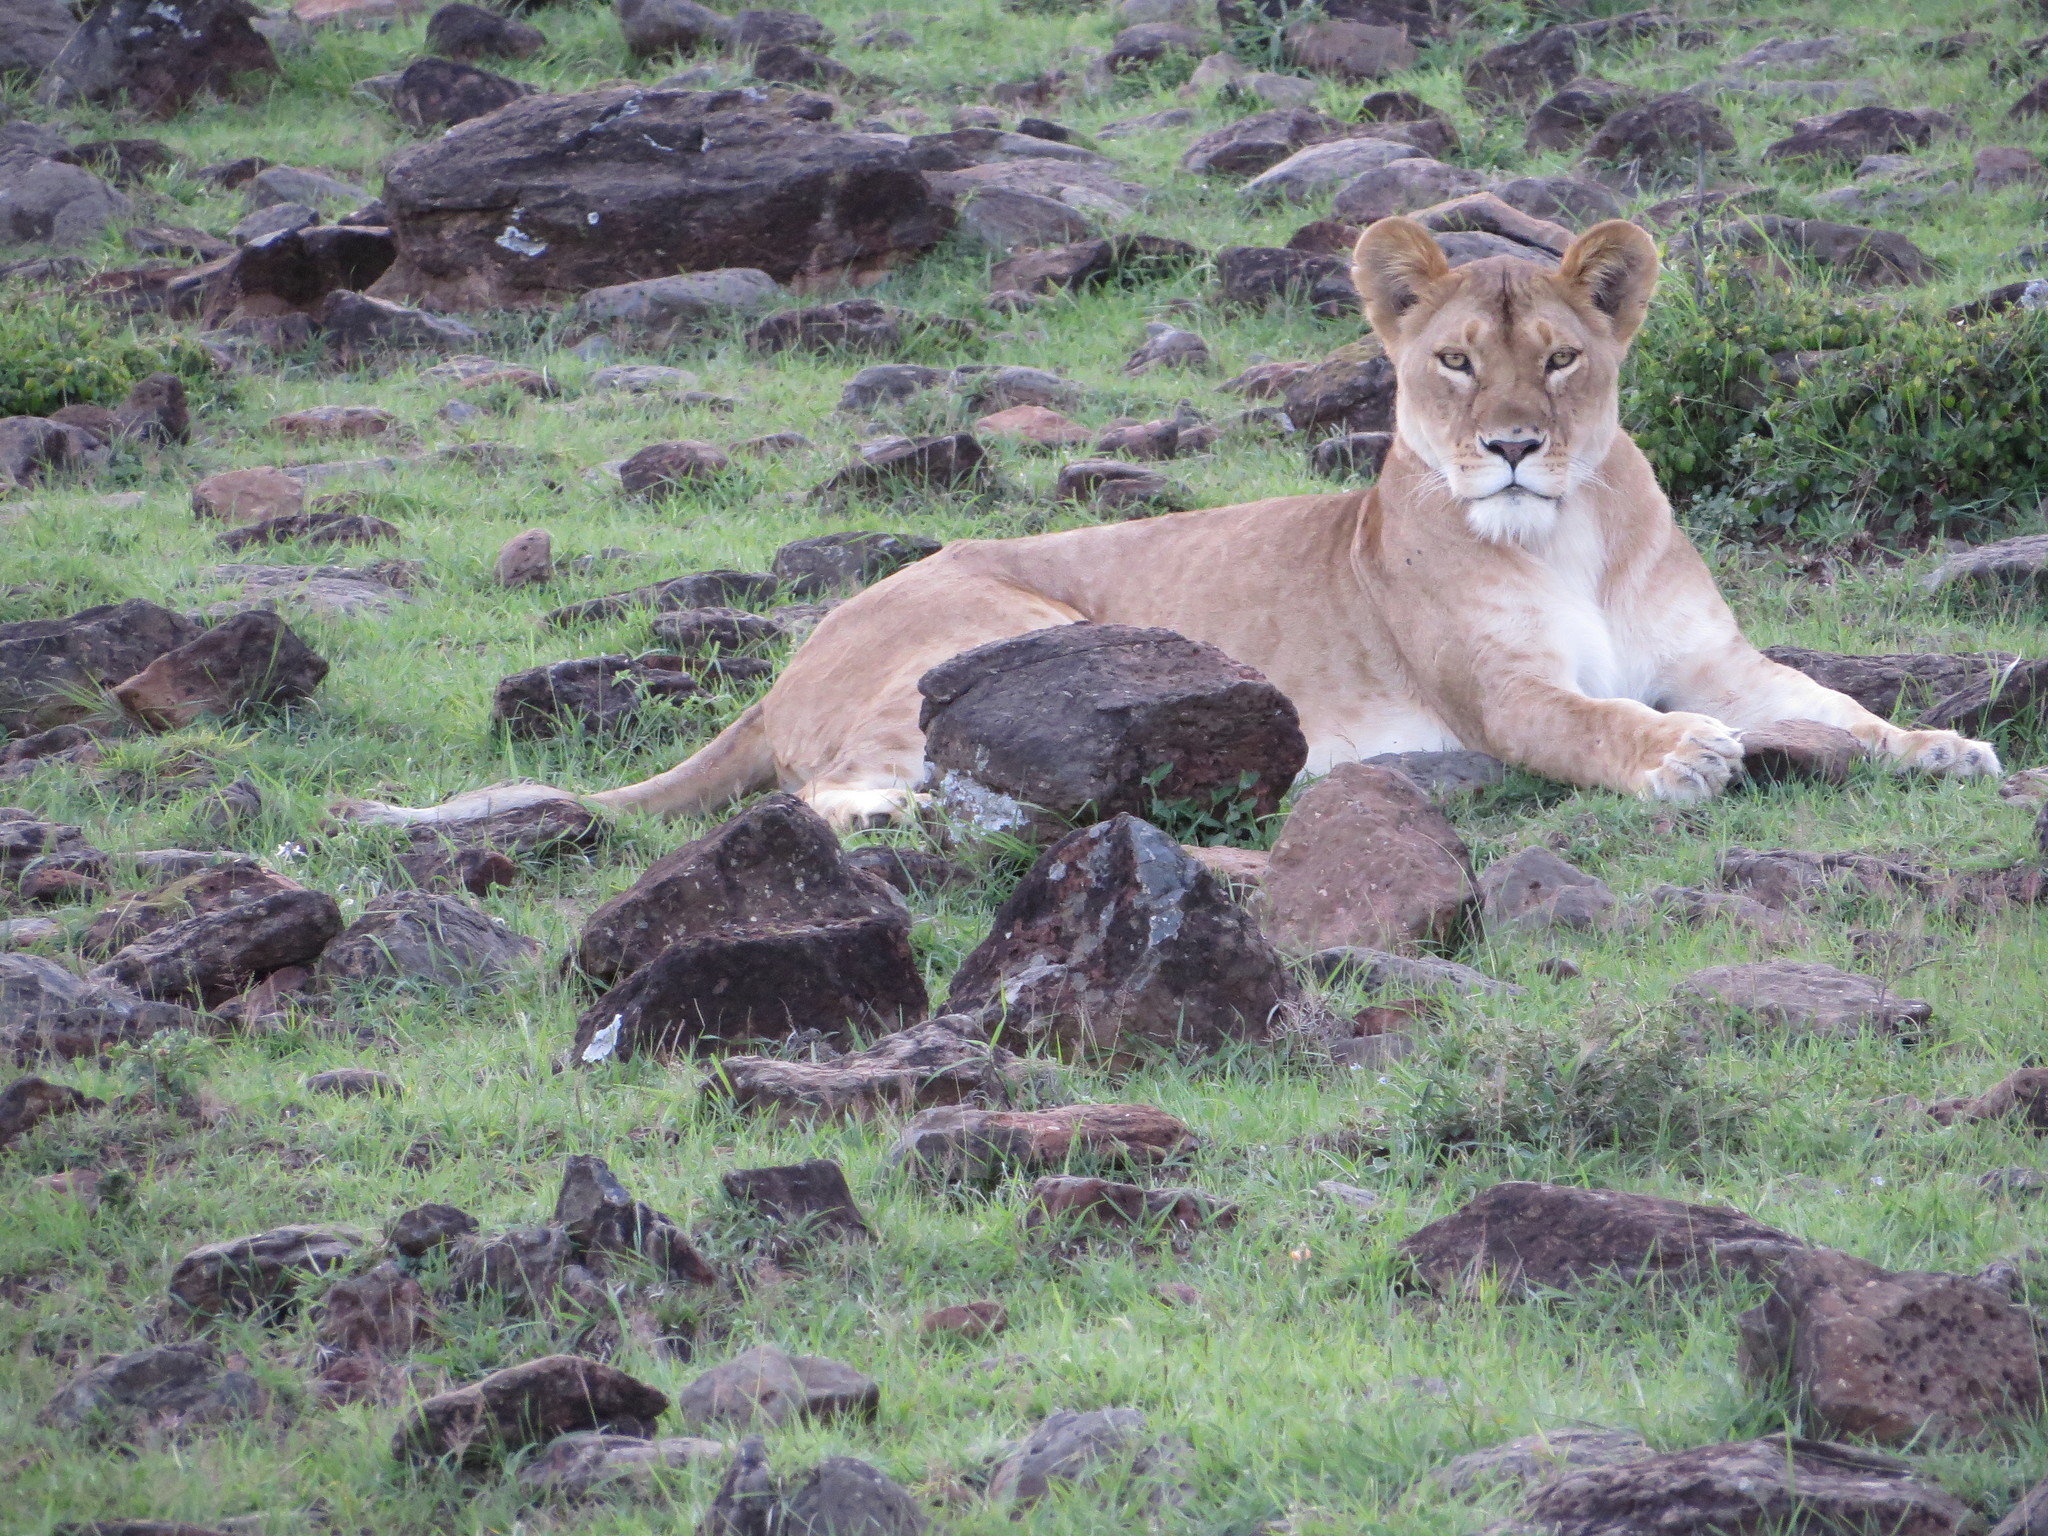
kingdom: Animalia
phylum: Chordata
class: Mammalia
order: Carnivora
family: Felidae
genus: Panthera
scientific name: Panthera leo
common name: Lion
